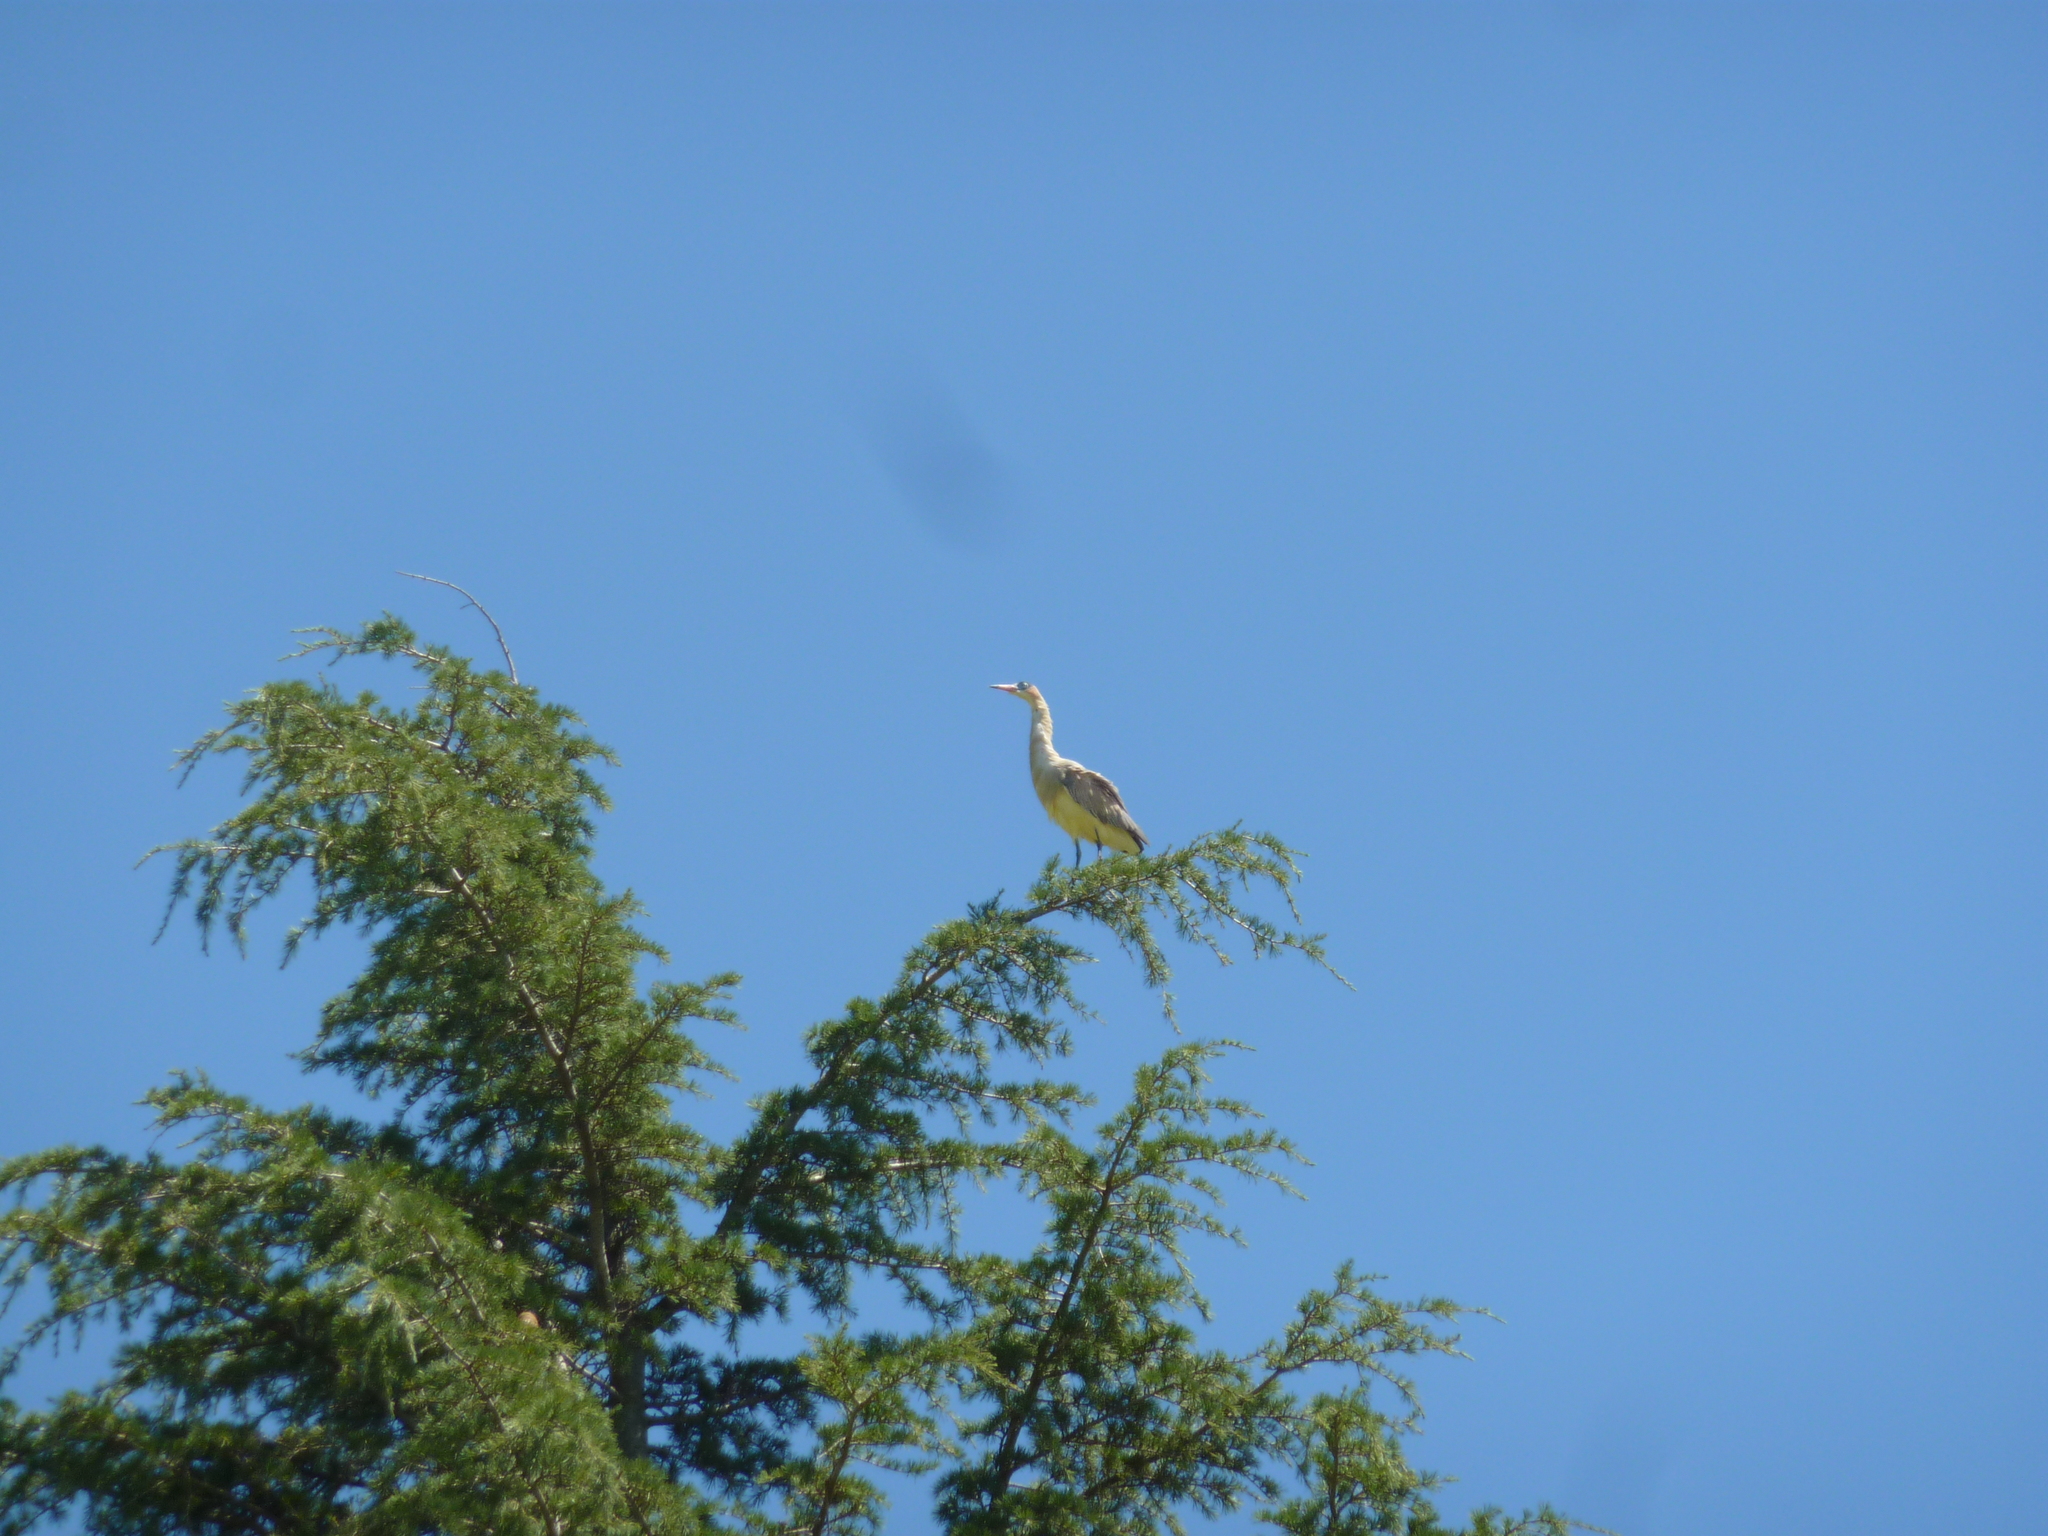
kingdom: Animalia
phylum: Chordata
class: Aves
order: Pelecaniformes
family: Ardeidae
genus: Syrigma
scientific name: Syrigma sibilatrix
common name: Whistling heron
